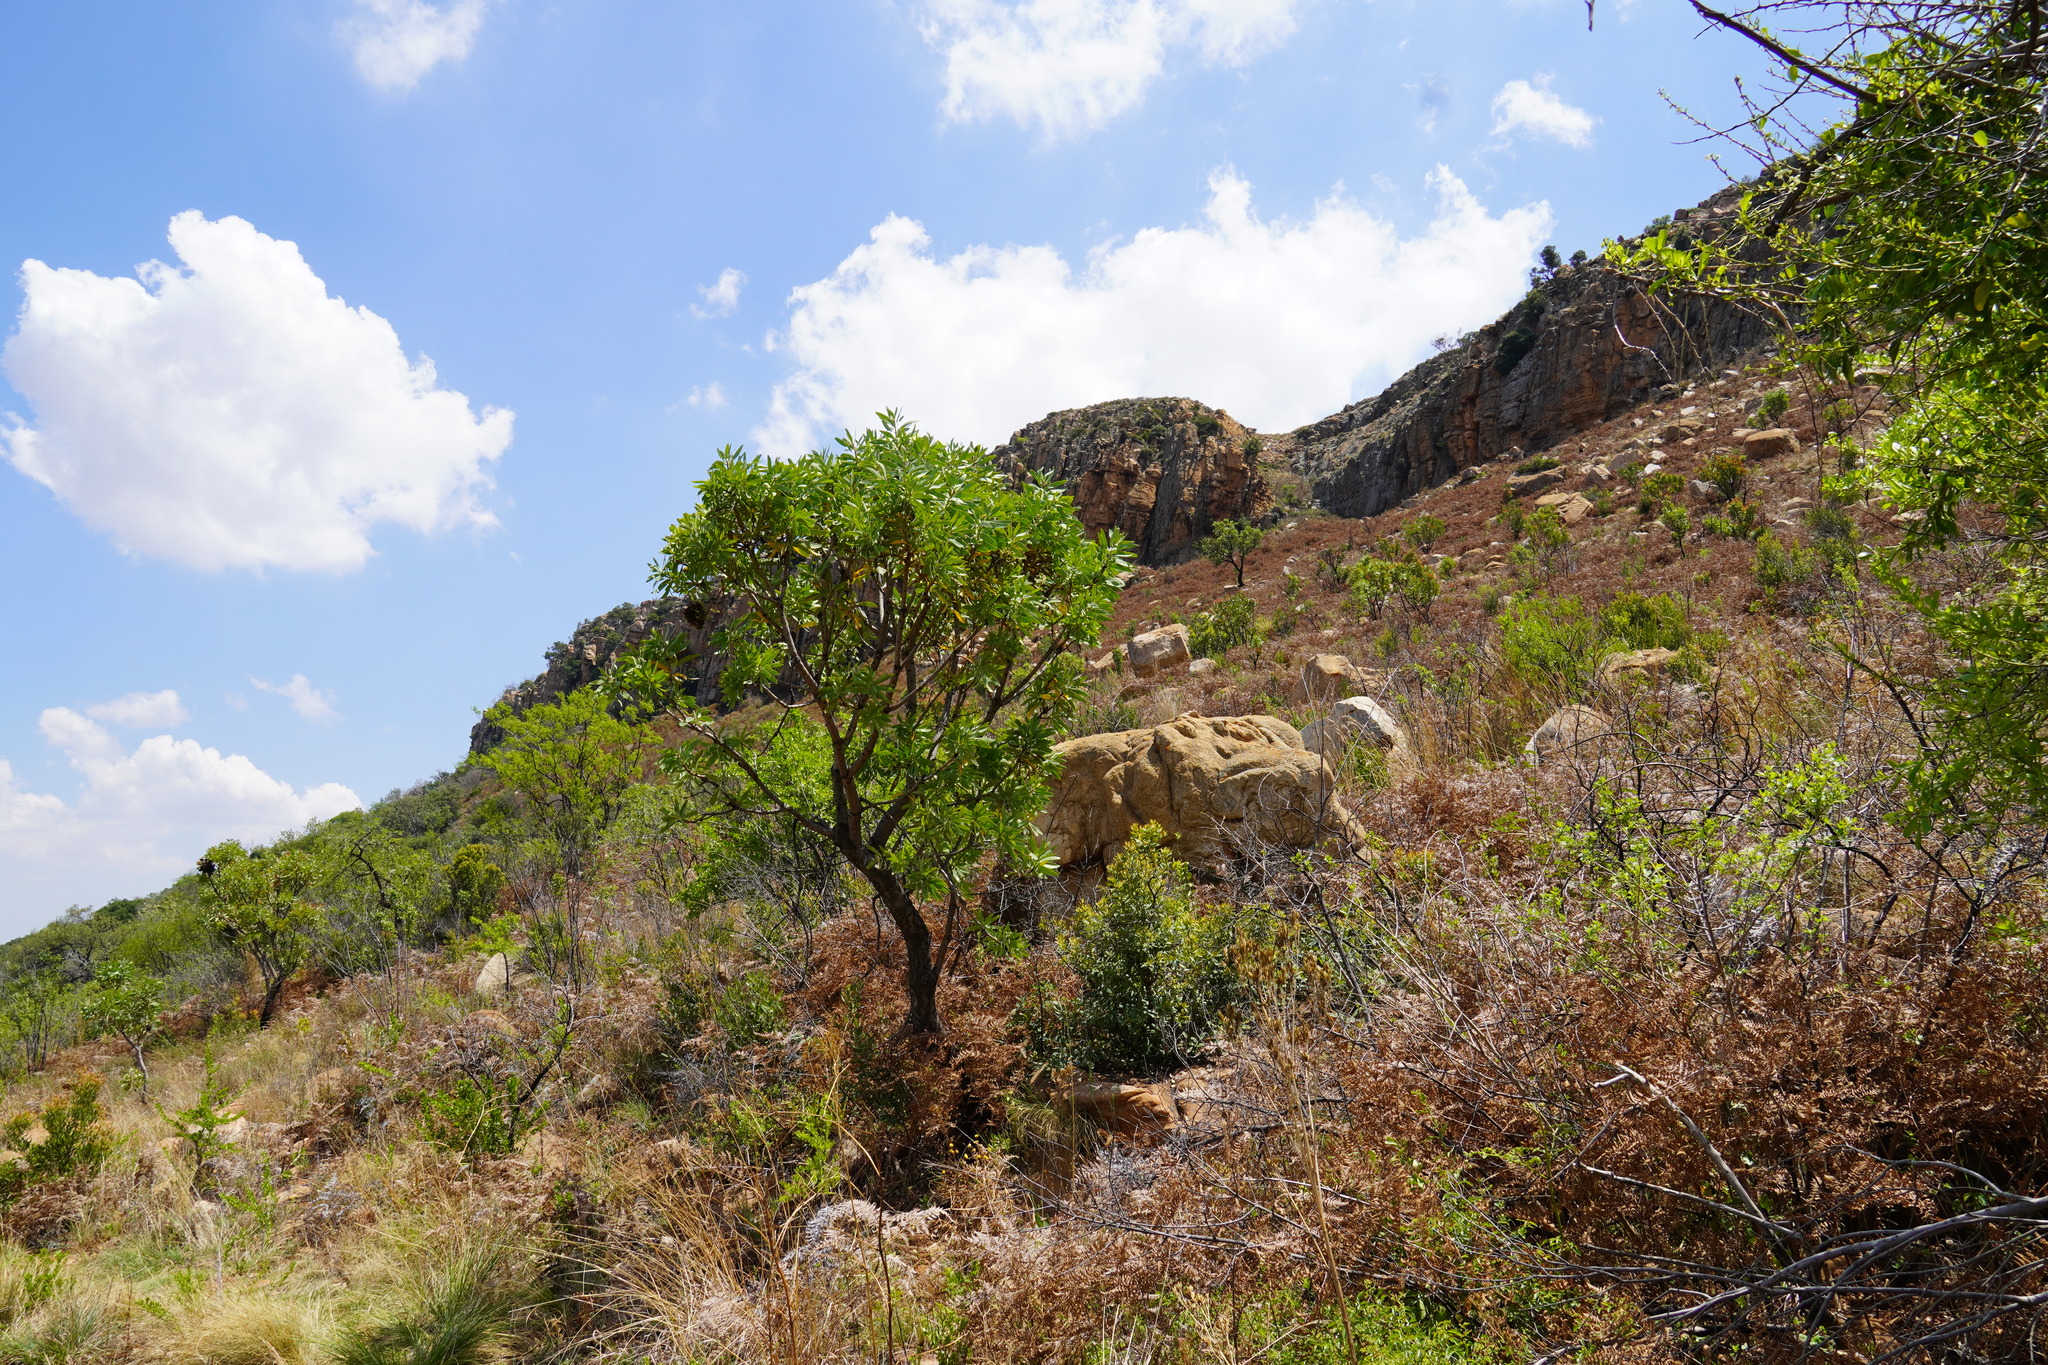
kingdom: Plantae
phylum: Tracheophyta
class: Magnoliopsida
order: Proteales
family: Proteaceae
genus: Protea
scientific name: Protea caffra
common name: Common sugarbush
